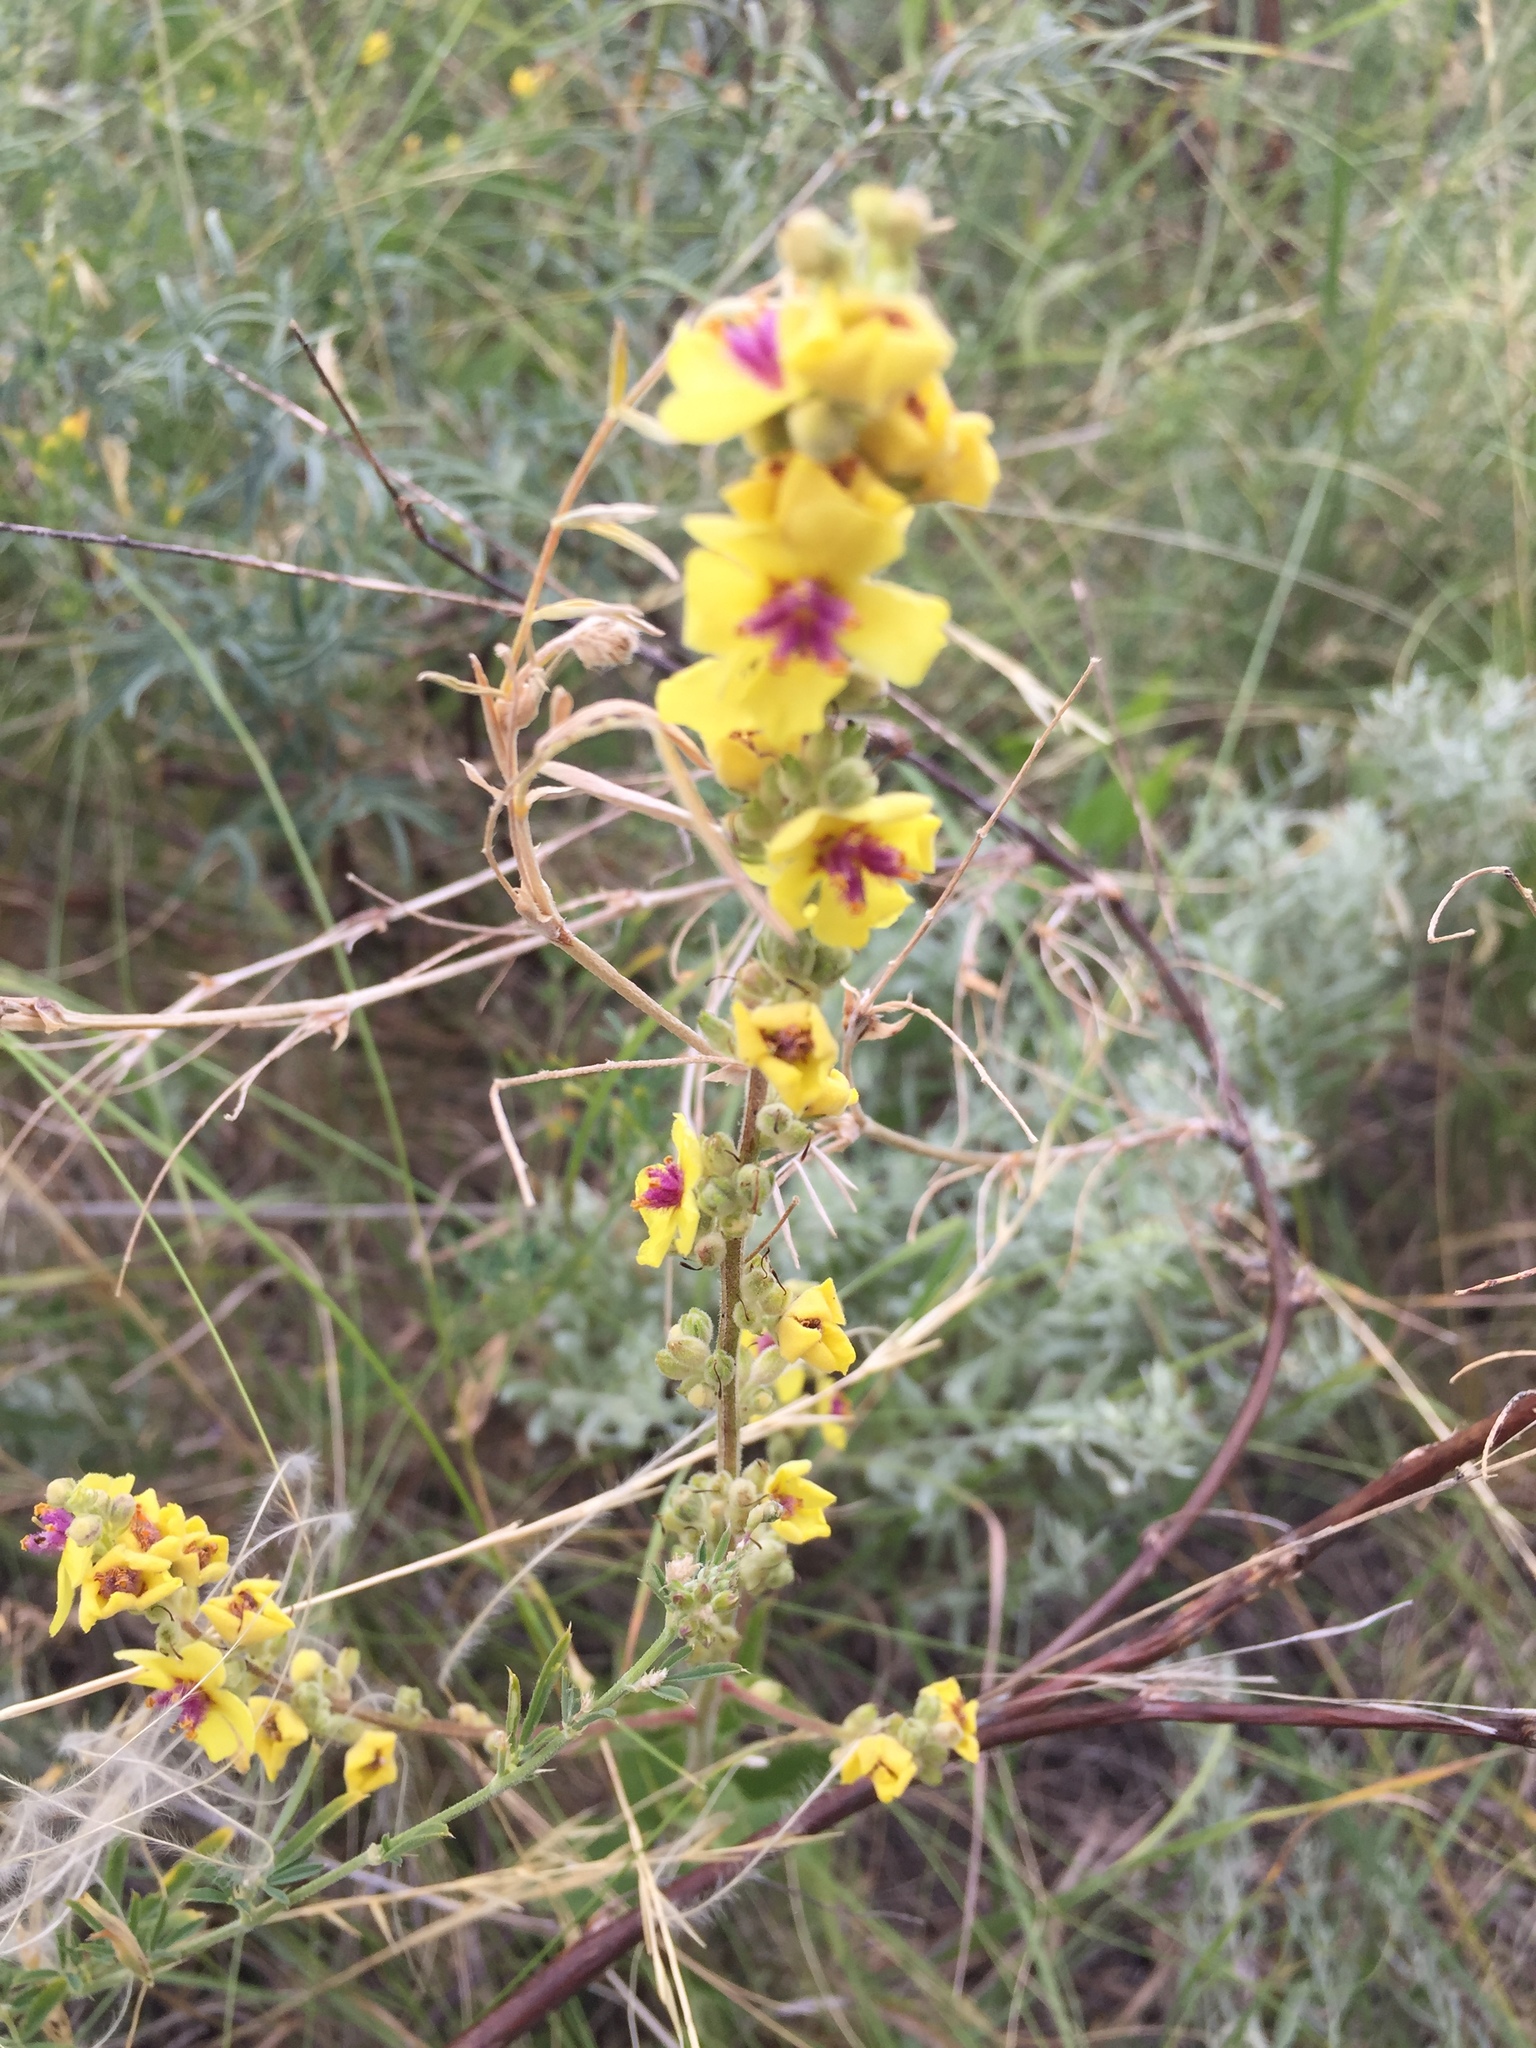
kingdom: Plantae
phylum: Tracheophyta
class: Magnoliopsida
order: Lamiales
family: Scrophulariaceae
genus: Verbascum
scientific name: Verbascum chaixii
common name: Nettle-leaved mullein
